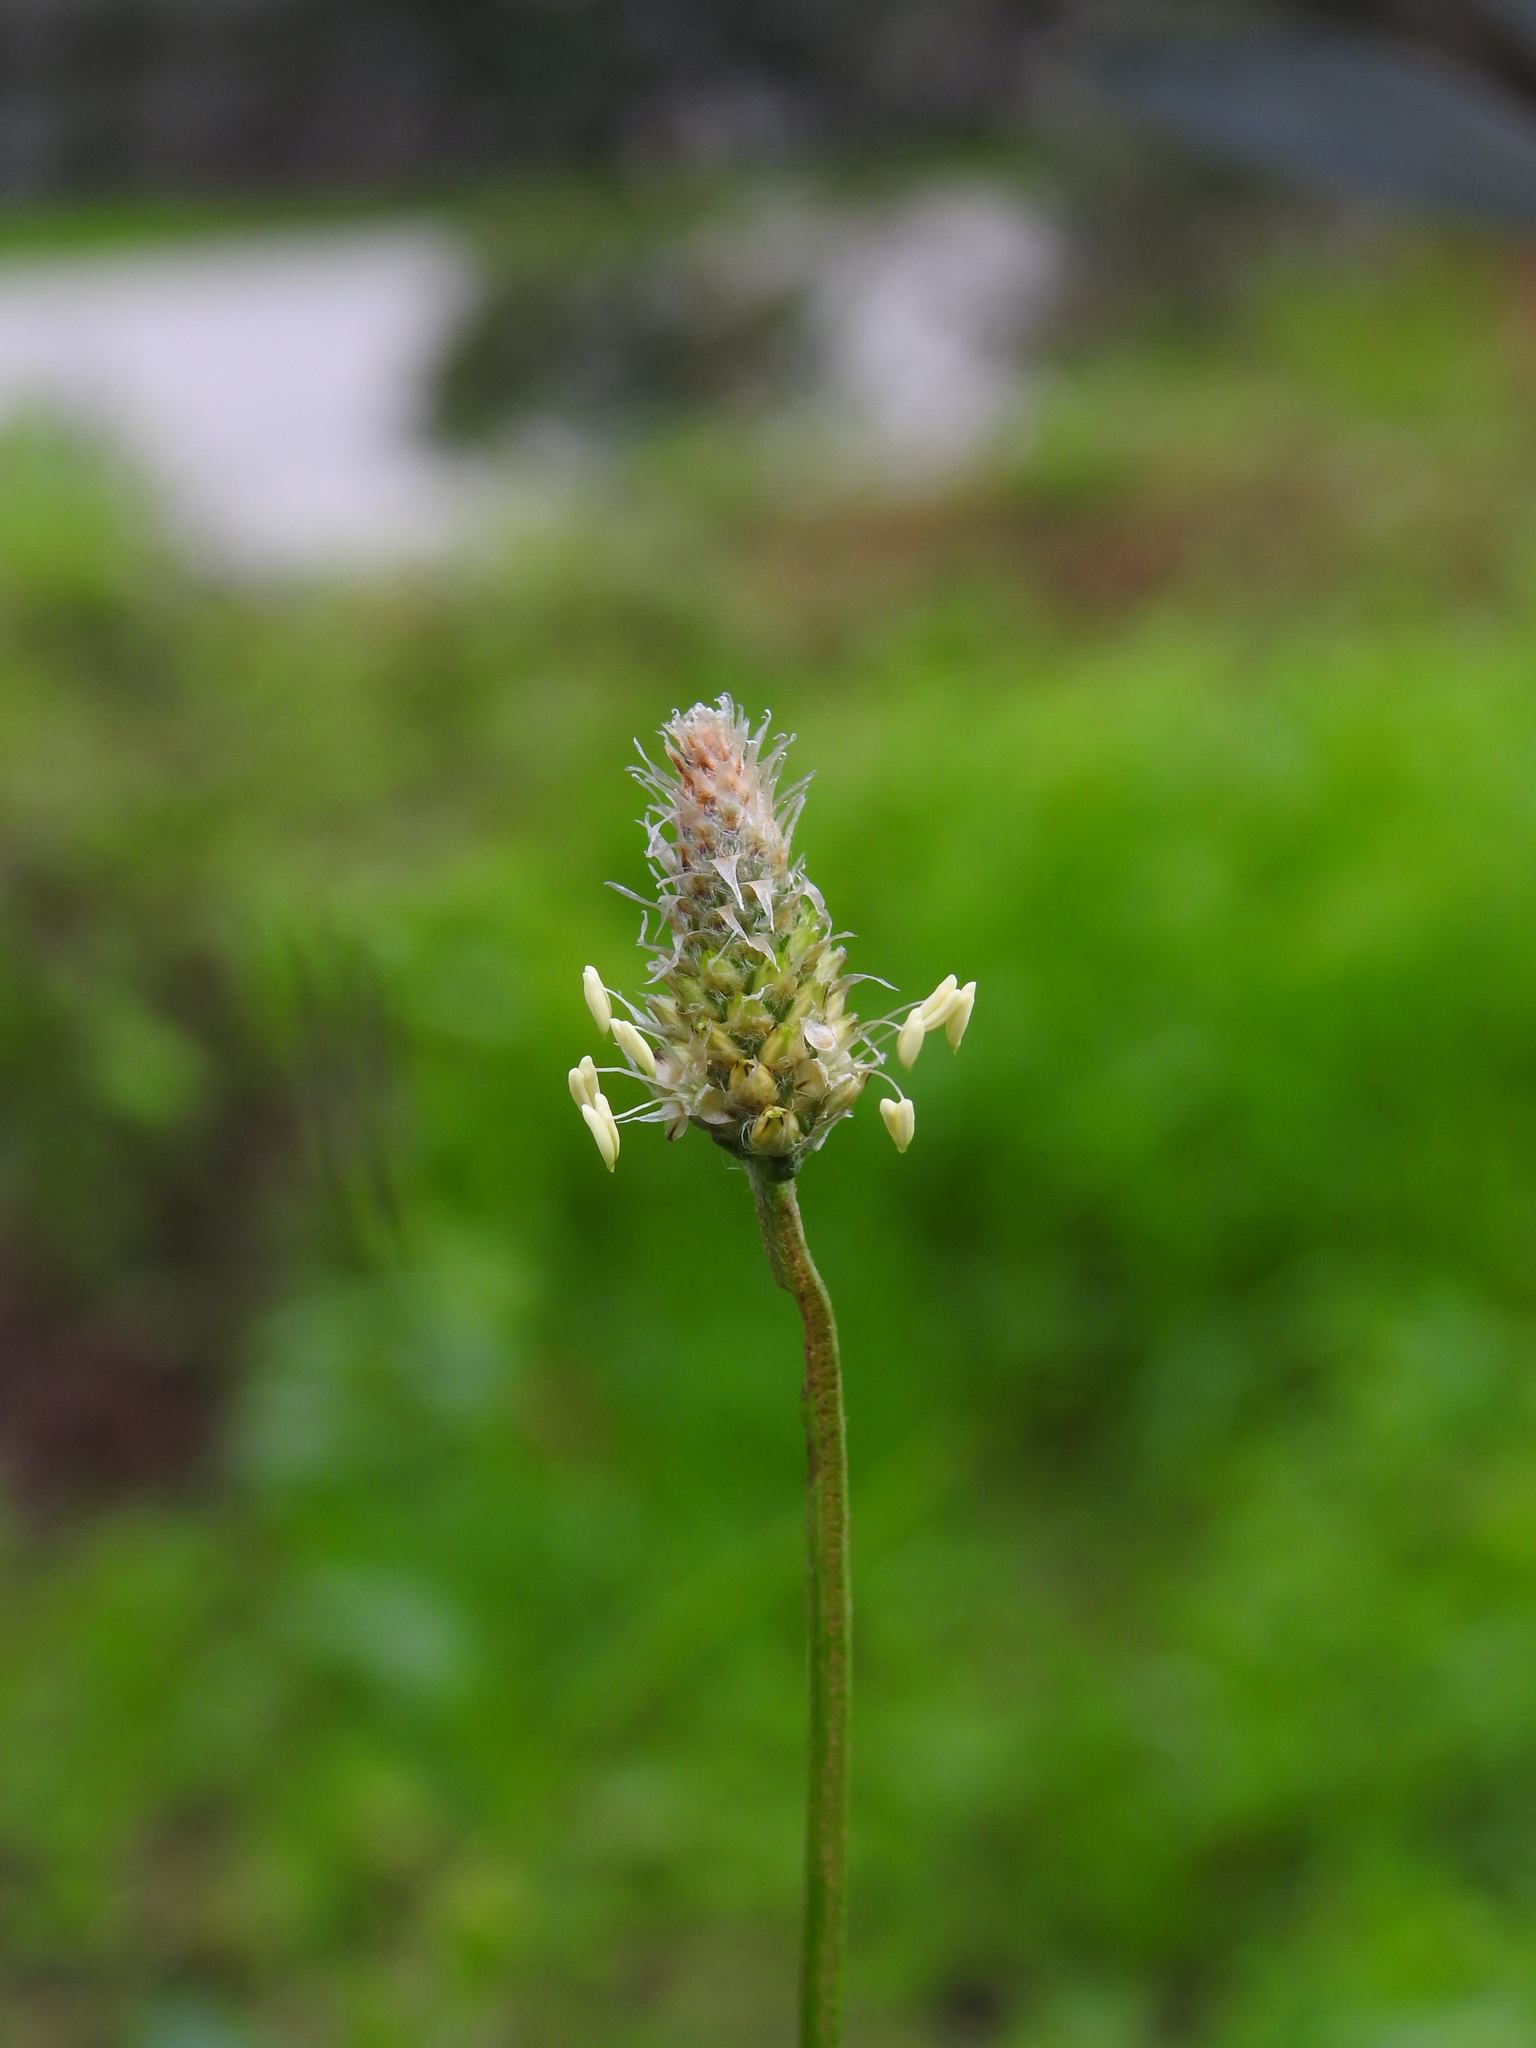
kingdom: Plantae
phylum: Tracheophyta
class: Magnoliopsida
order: Lamiales
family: Plantaginaceae
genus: Plantago
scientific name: Plantago lanceolata
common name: Ribwort plantain
